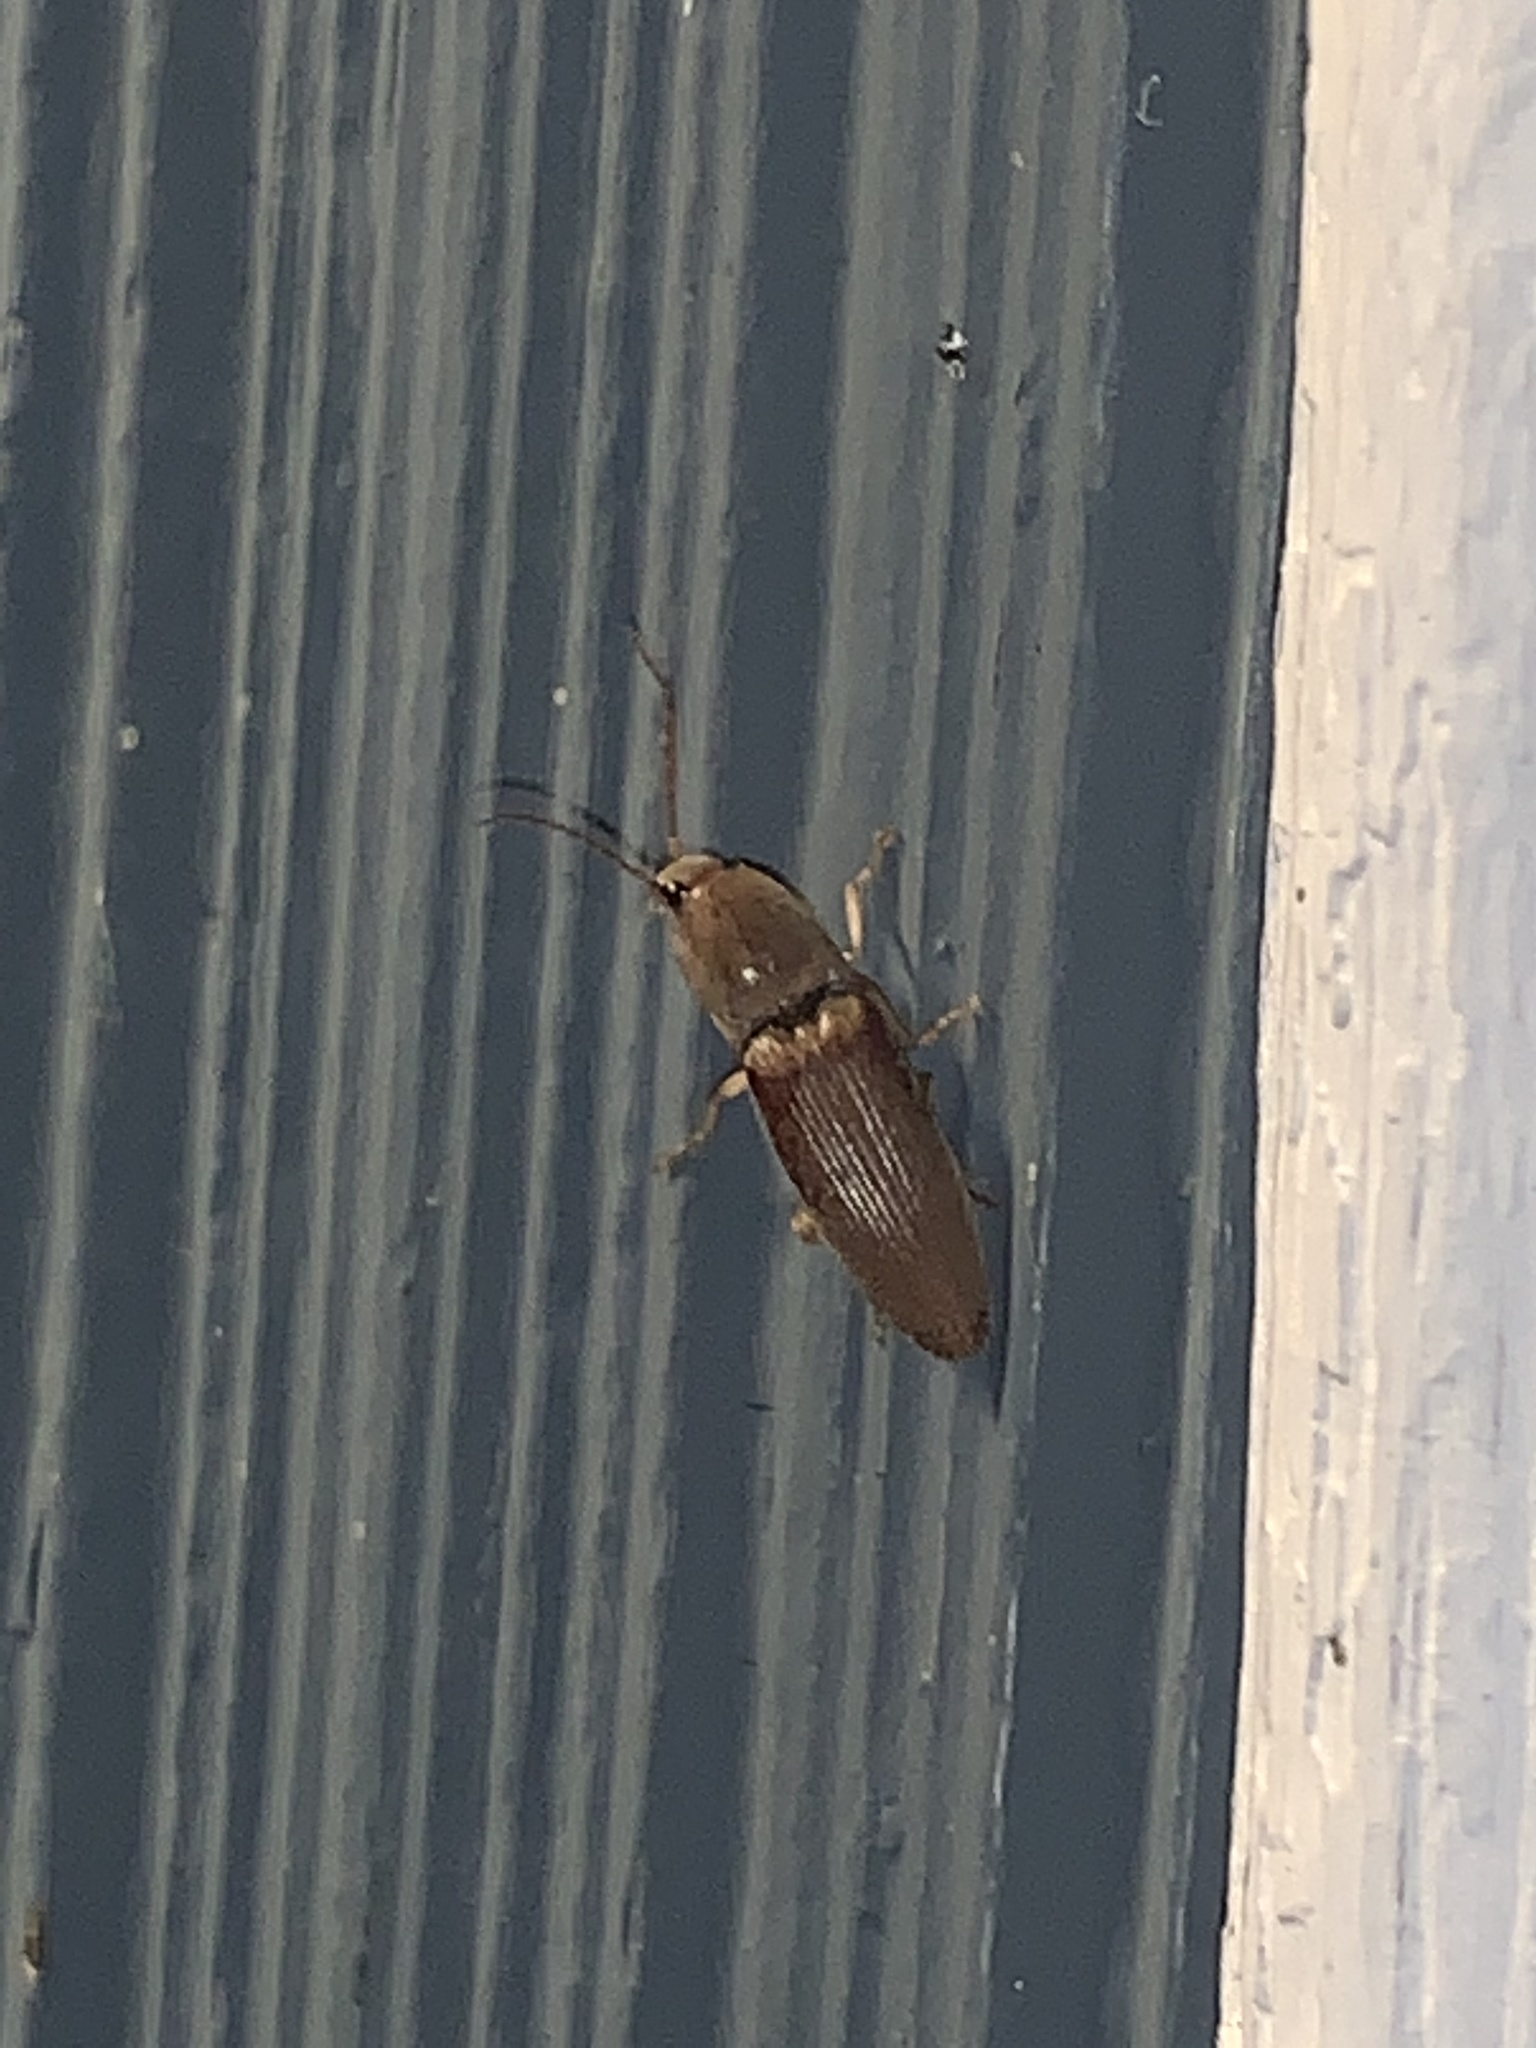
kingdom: Animalia
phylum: Arthropoda
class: Insecta
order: Coleoptera
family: Elateridae
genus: Monocrepidius
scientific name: Monocrepidius lividus
